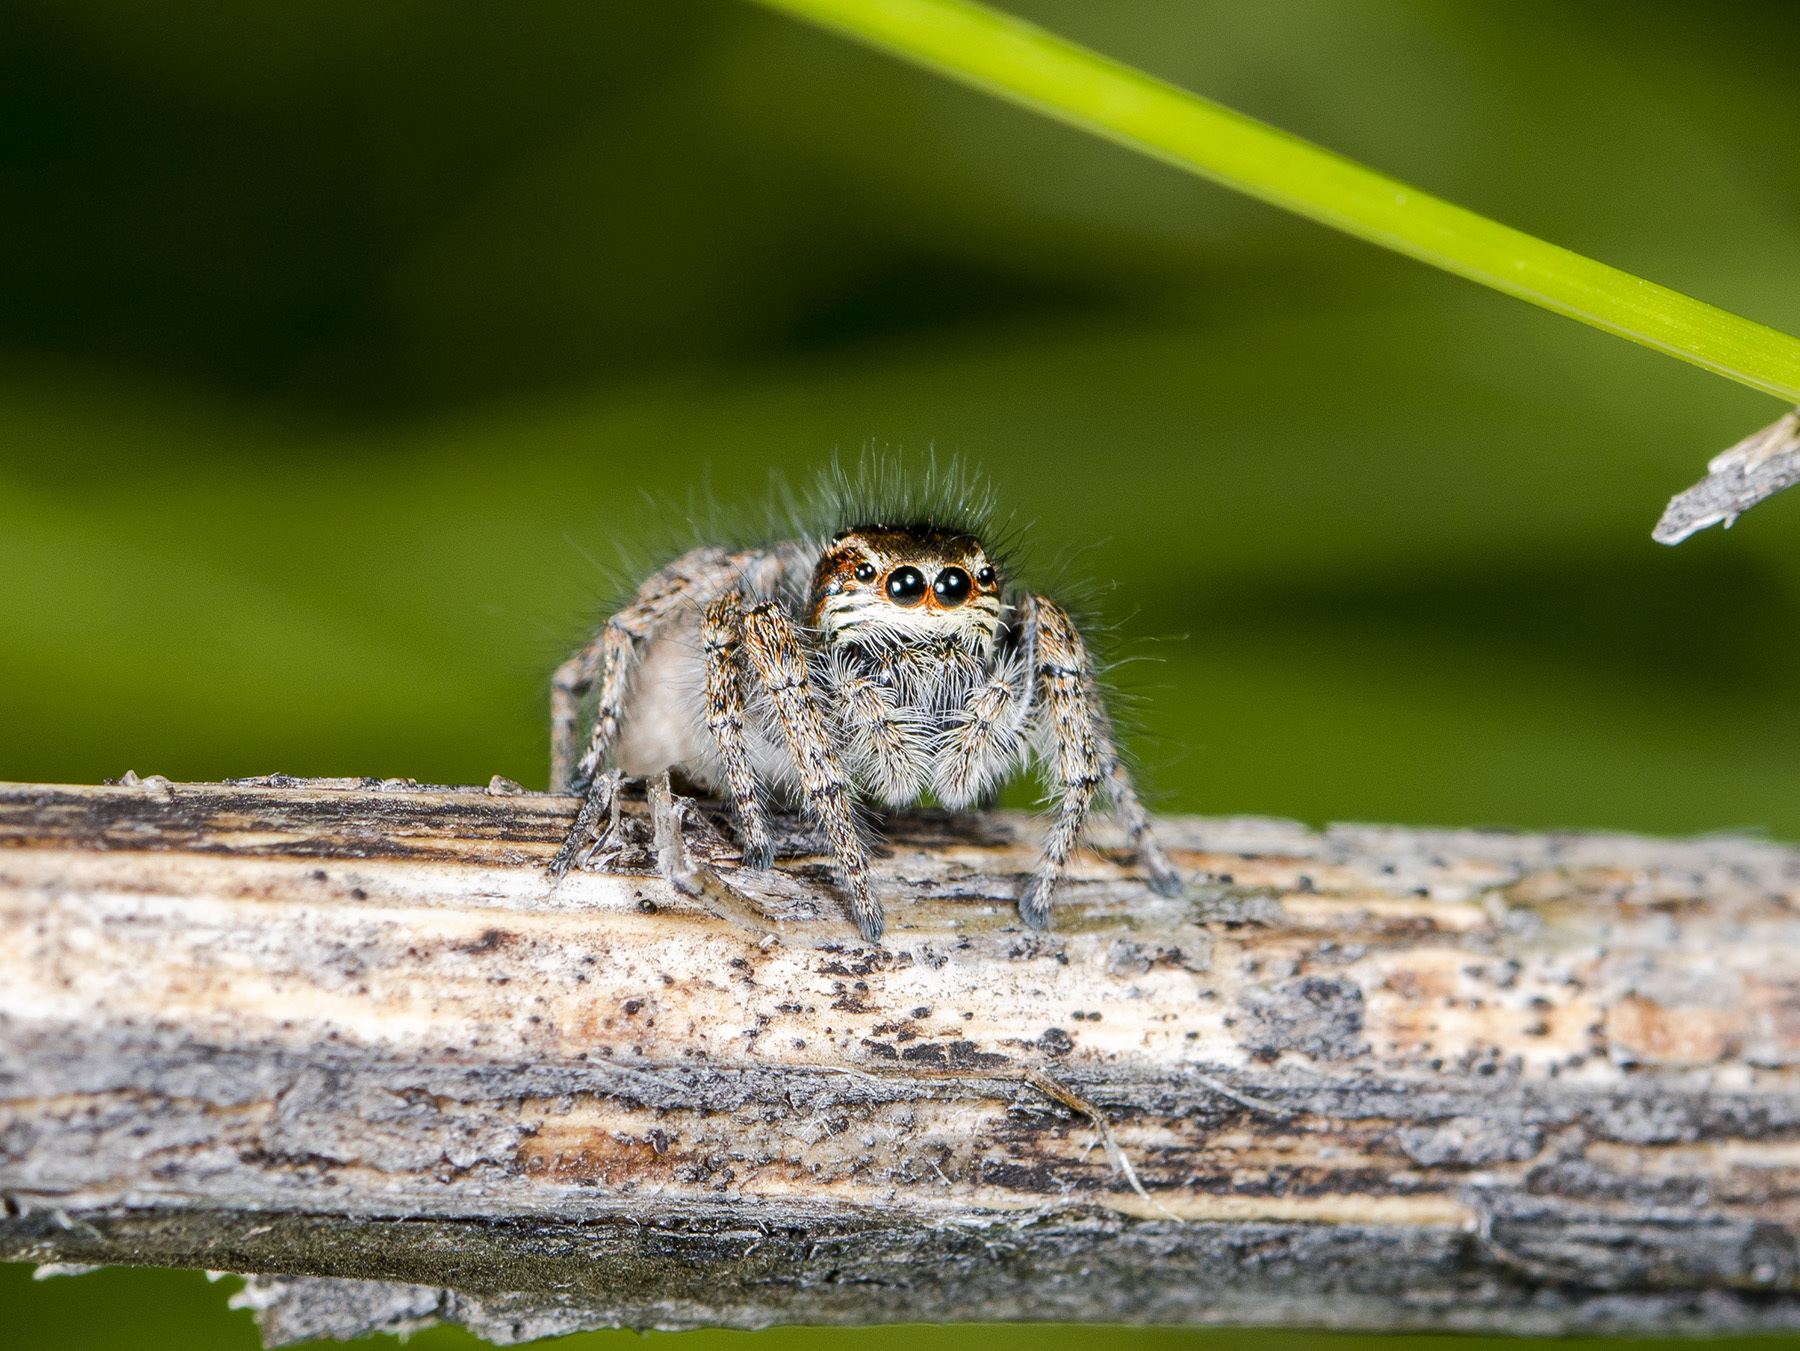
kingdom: Animalia
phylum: Arthropoda
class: Arachnida
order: Araneae
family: Salticidae
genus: Philaeus
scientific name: Philaeus chrysops
